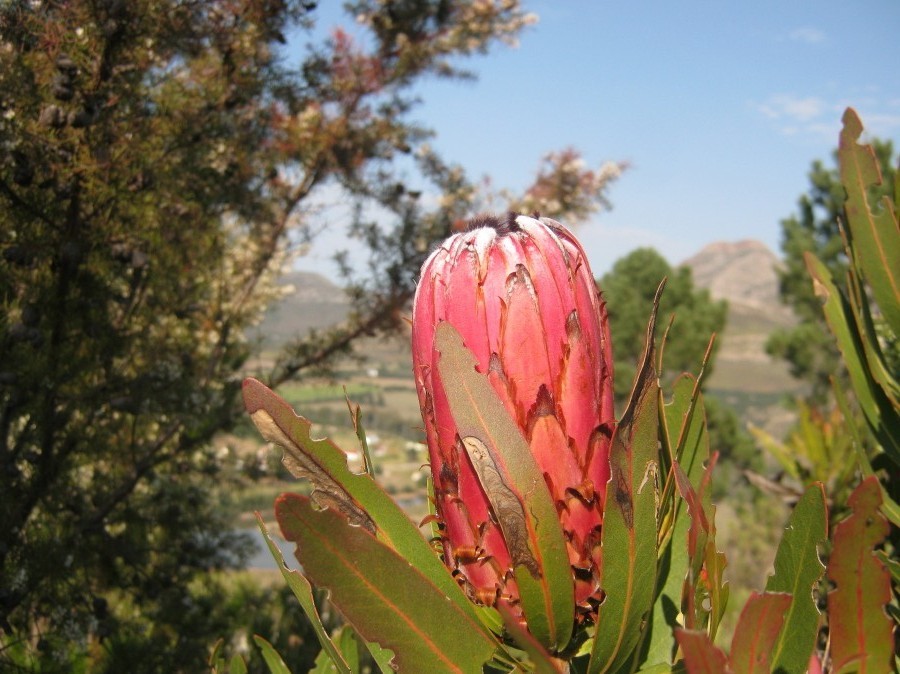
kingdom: Plantae
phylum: Tracheophyta
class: Magnoliopsida
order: Proteales
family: Proteaceae
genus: Protea
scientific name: Protea neriifolia
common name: Blue sugarbush
